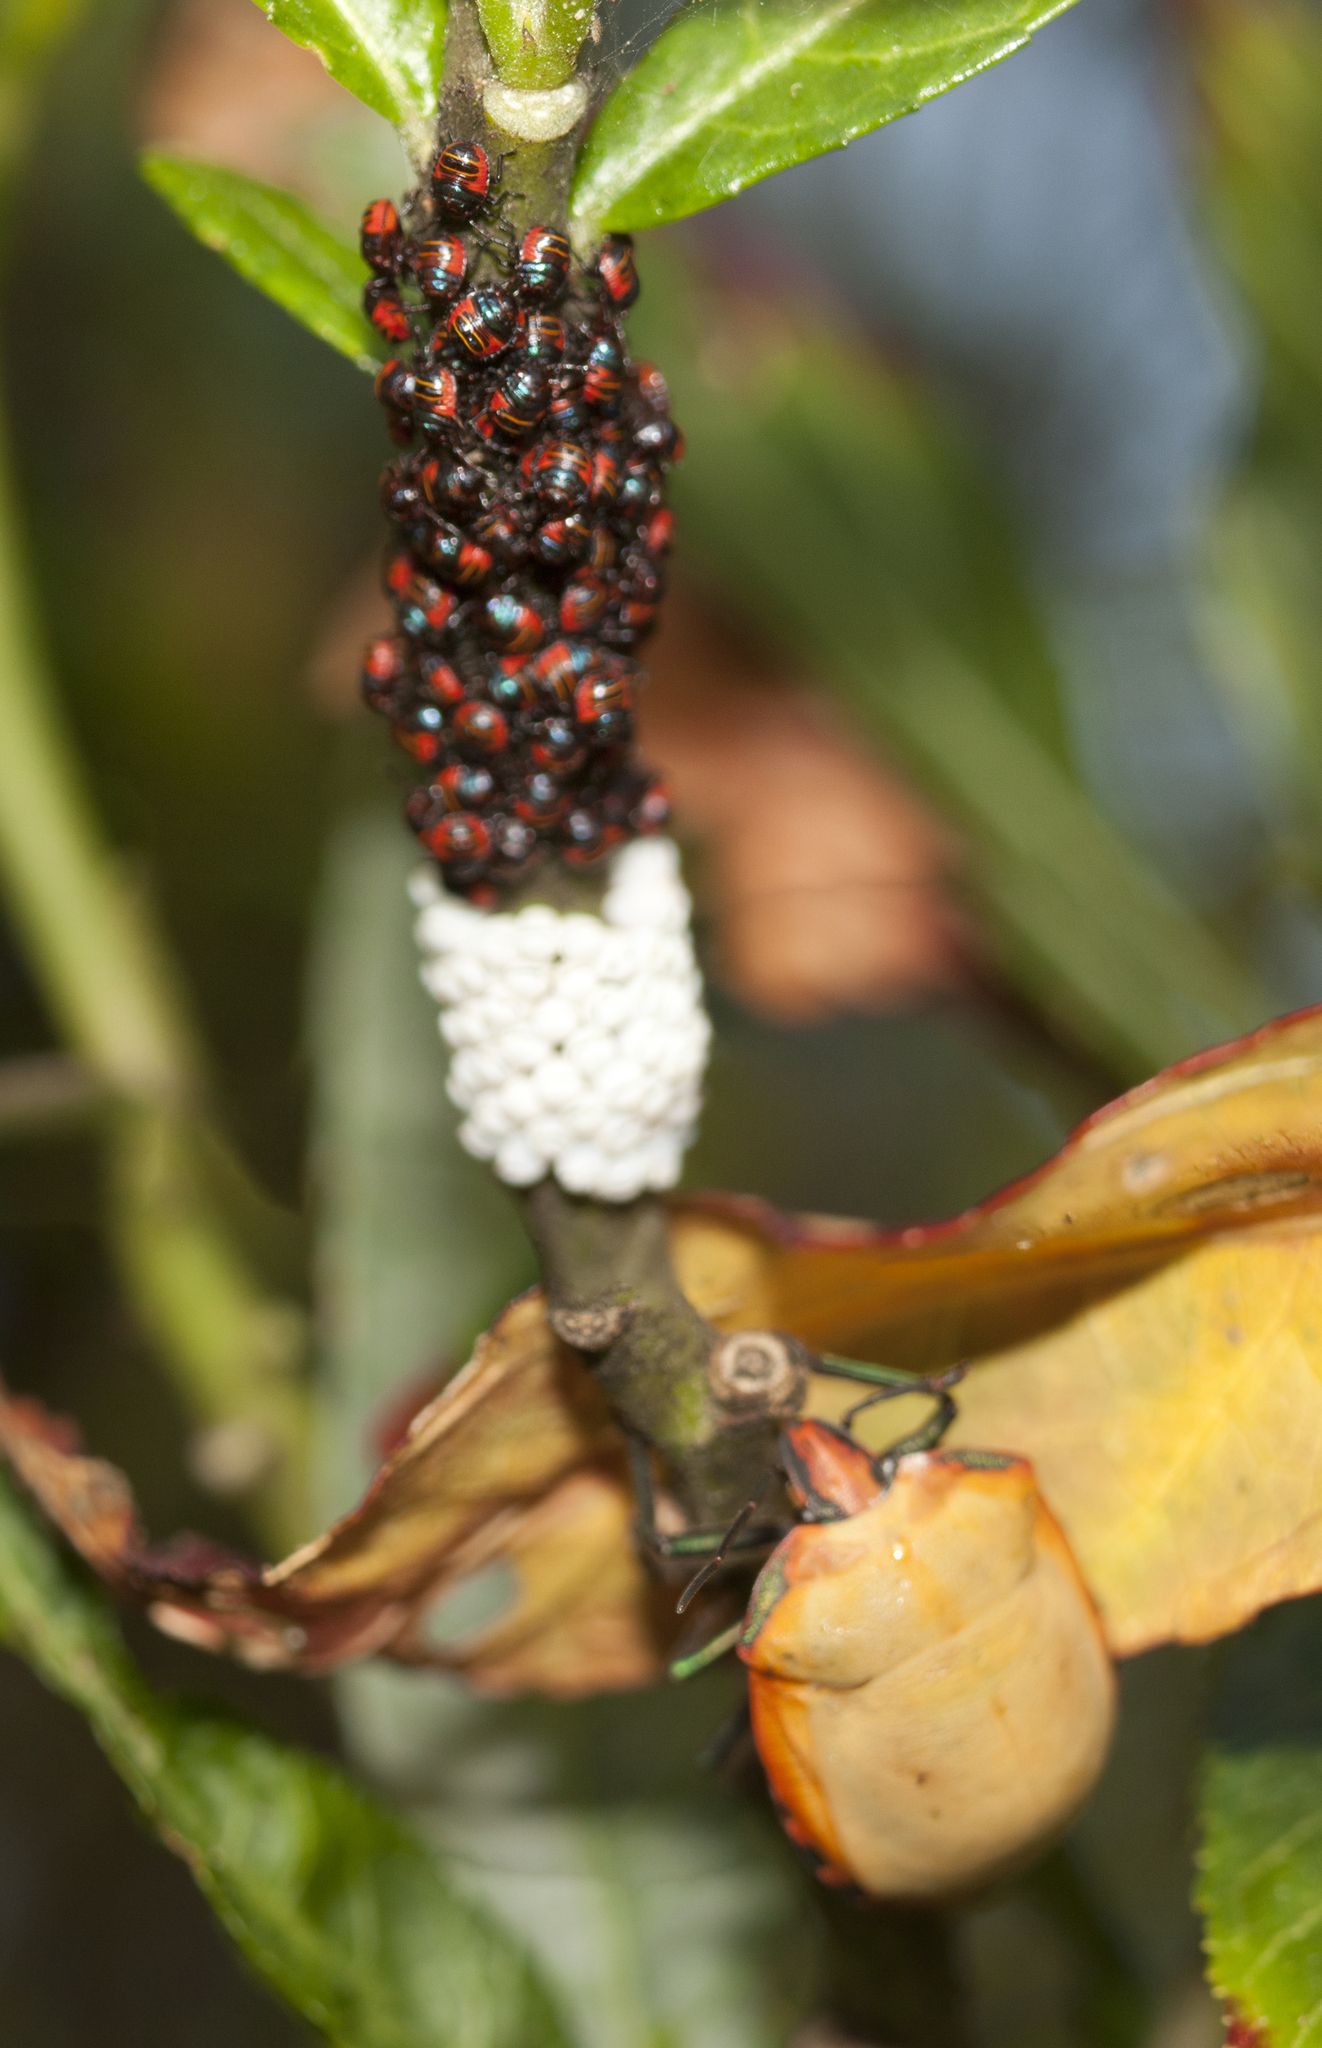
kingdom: Animalia
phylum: Arthropoda
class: Insecta
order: Hemiptera
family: Scutelleridae
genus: Tectocoris
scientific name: Tectocoris diophthalmus
